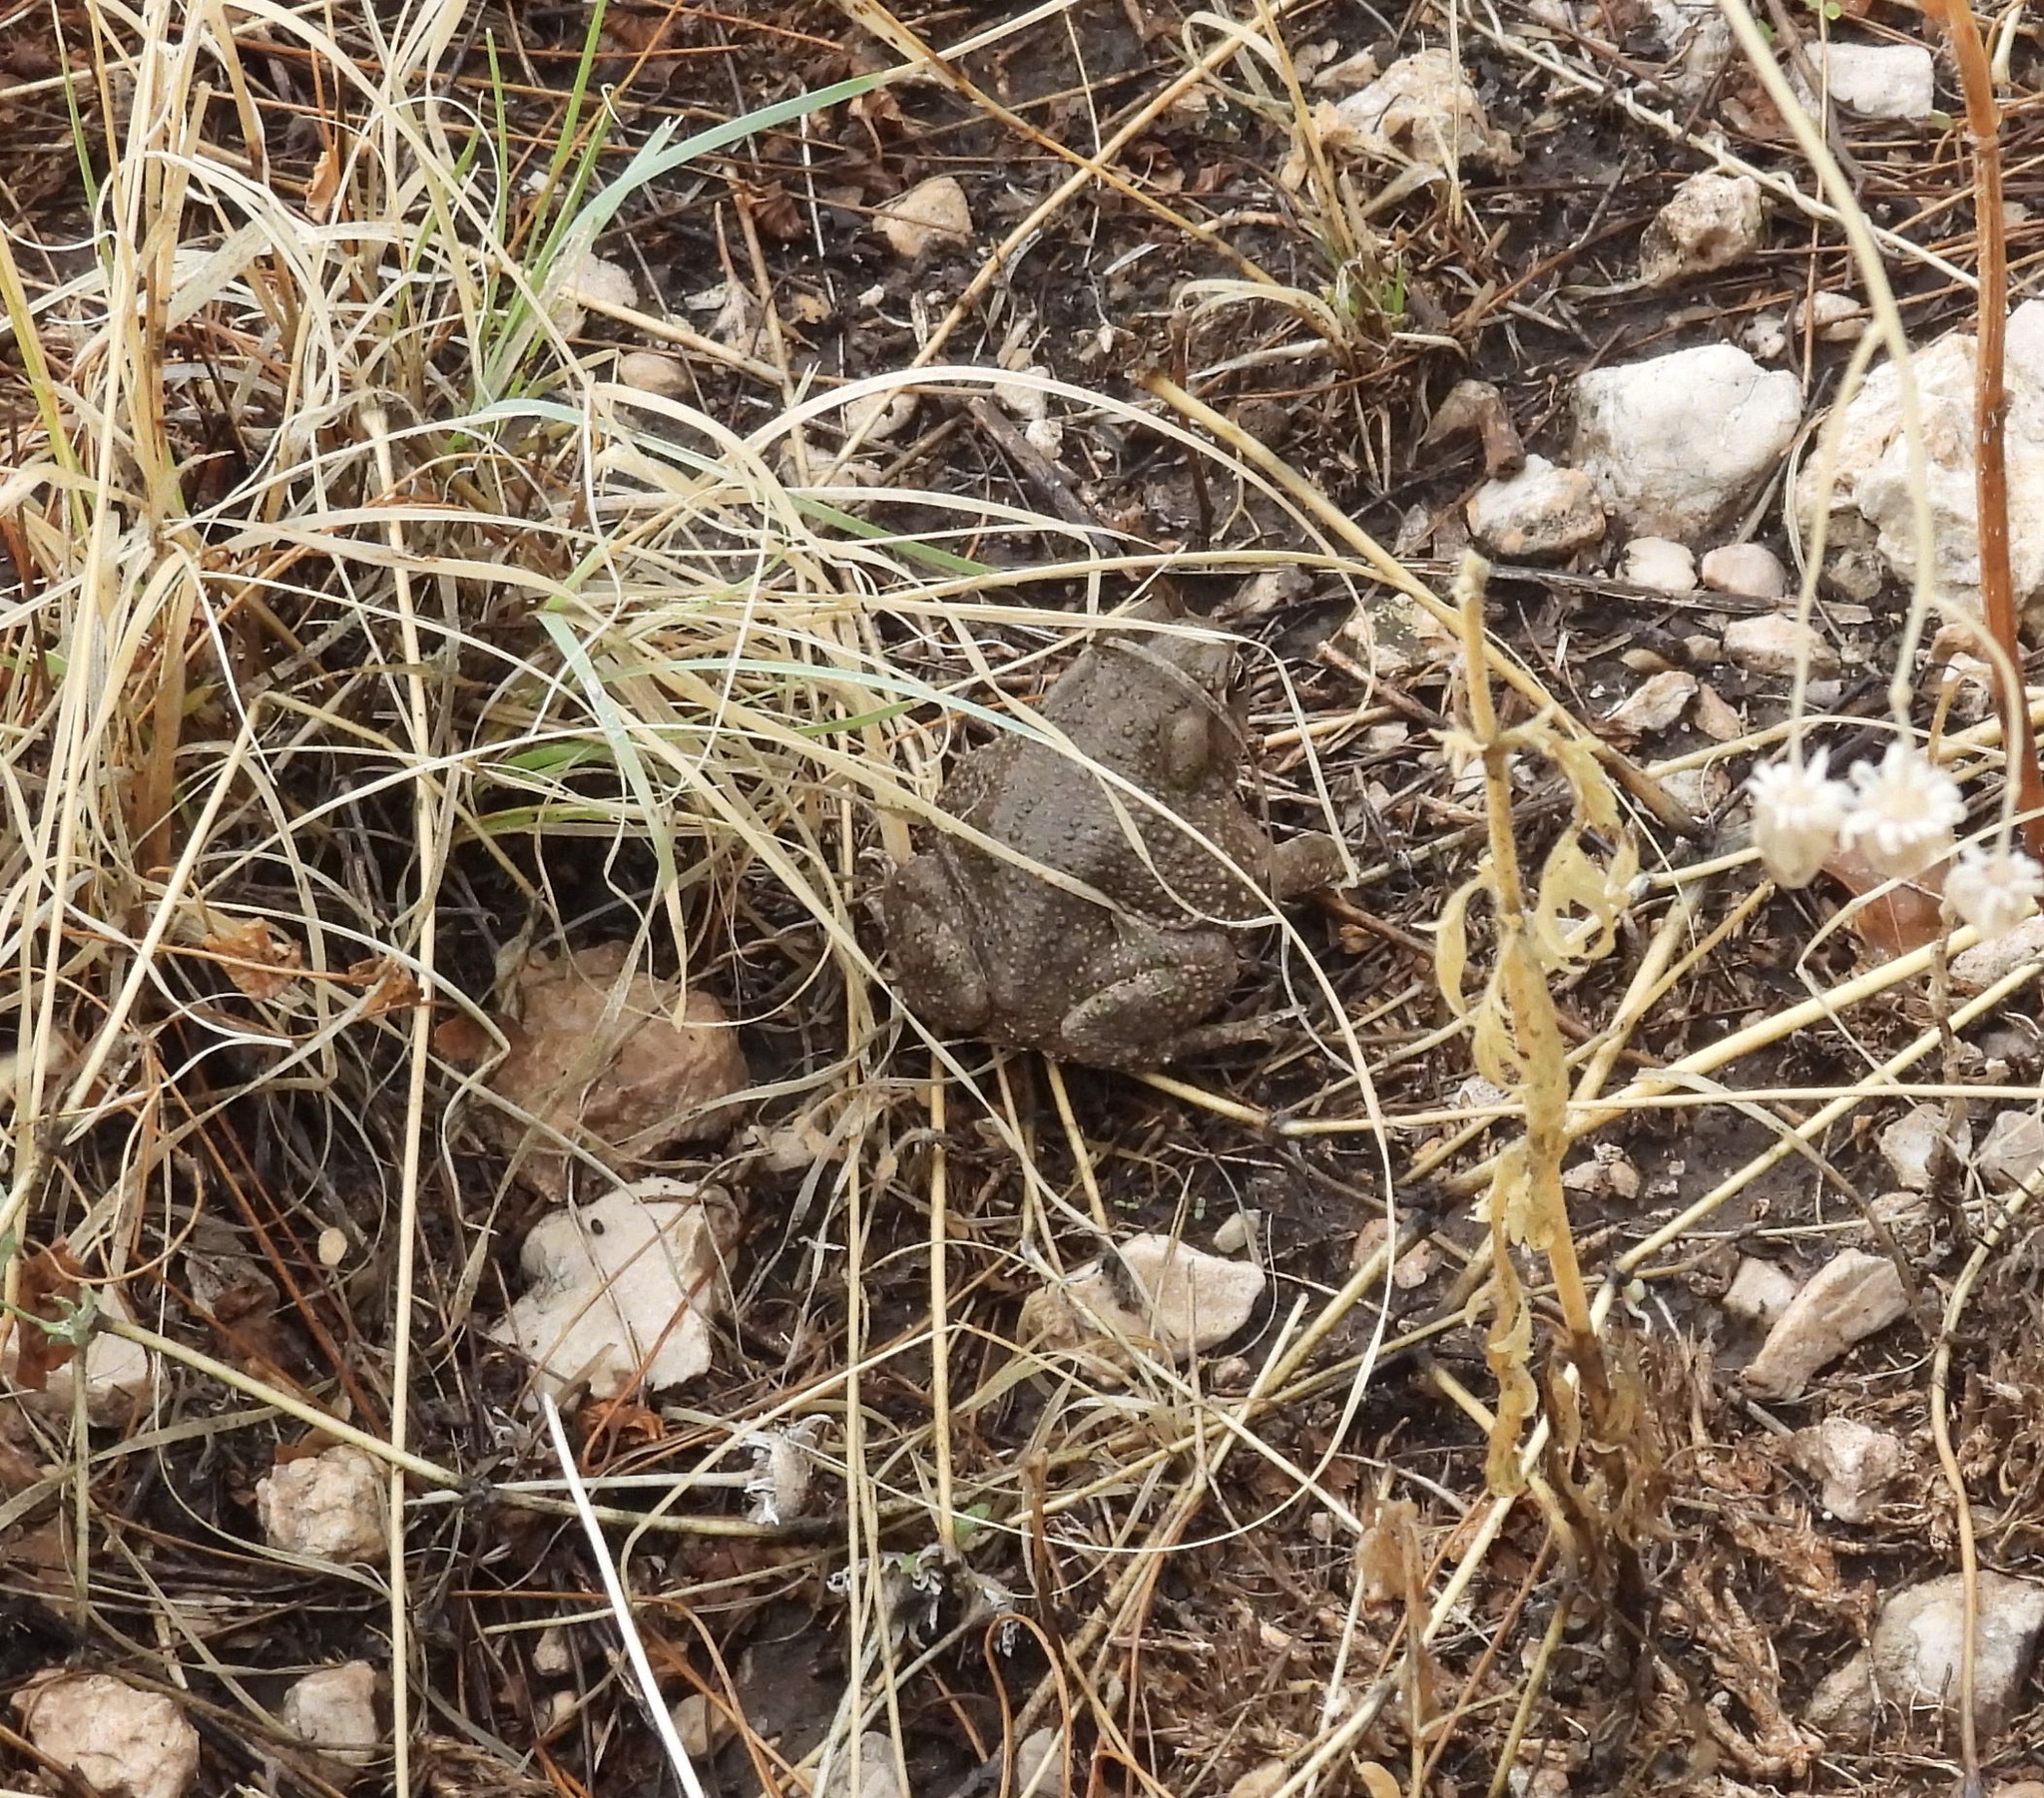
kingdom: Animalia
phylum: Chordata
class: Amphibia
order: Anura
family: Bufonidae
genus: Anaxyrus
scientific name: Anaxyrus speciosus
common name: Texas toad
